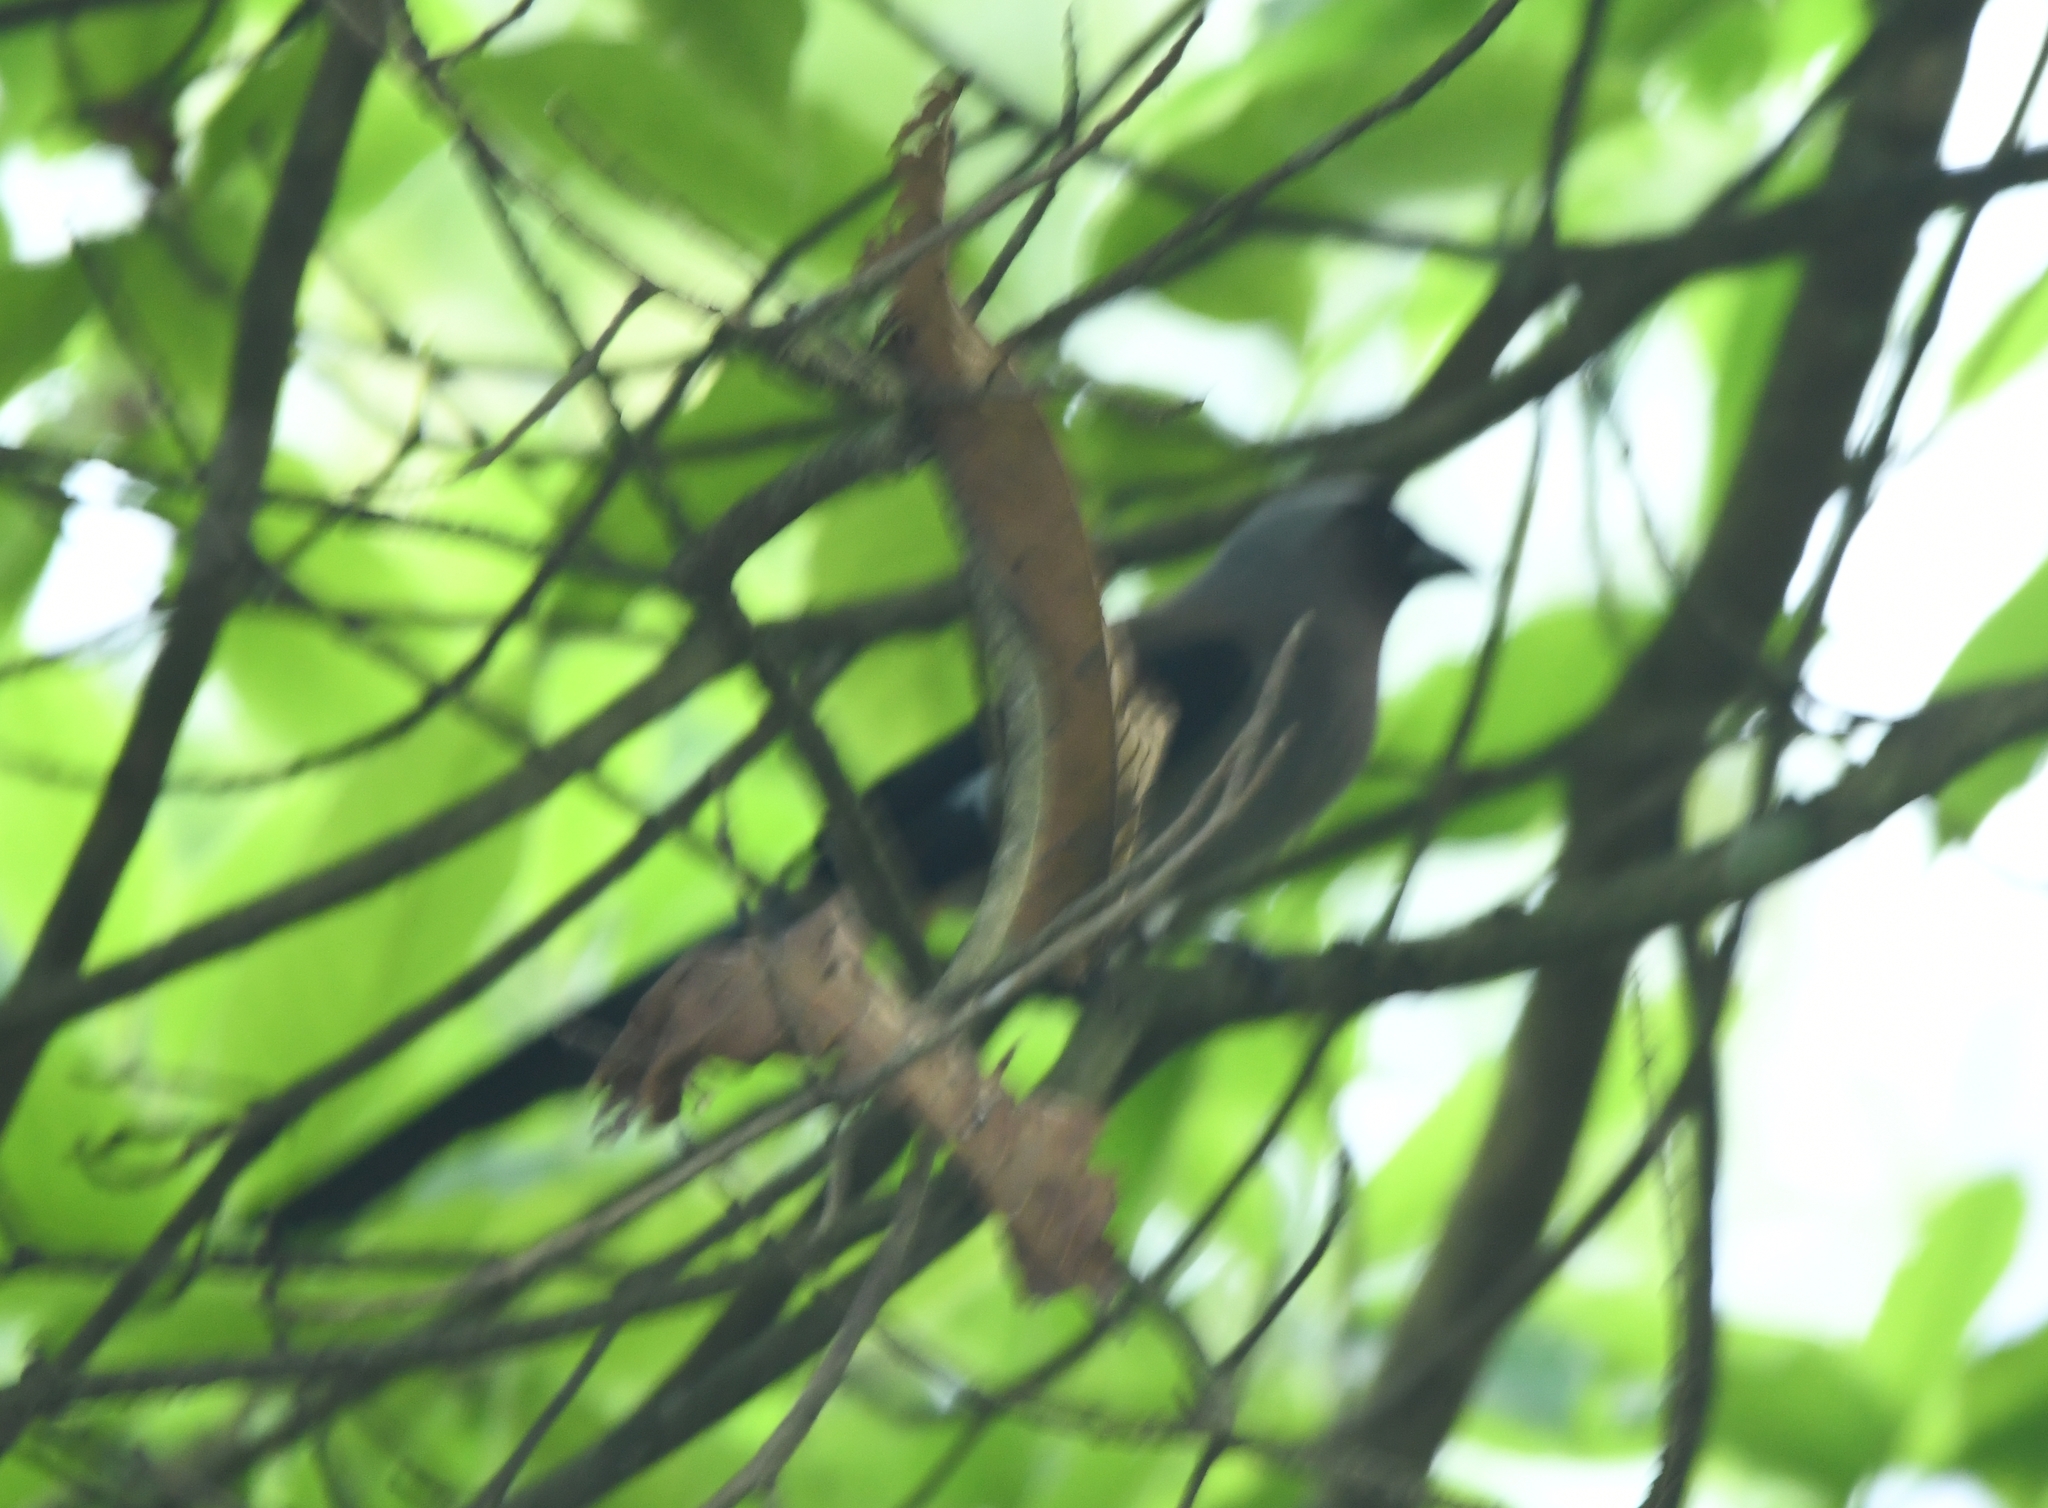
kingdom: Animalia
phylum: Chordata
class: Aves
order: Passeriformes
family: Corvidae
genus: Dendrocitta
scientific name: Dendrocitta formosae
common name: Grey treepie
